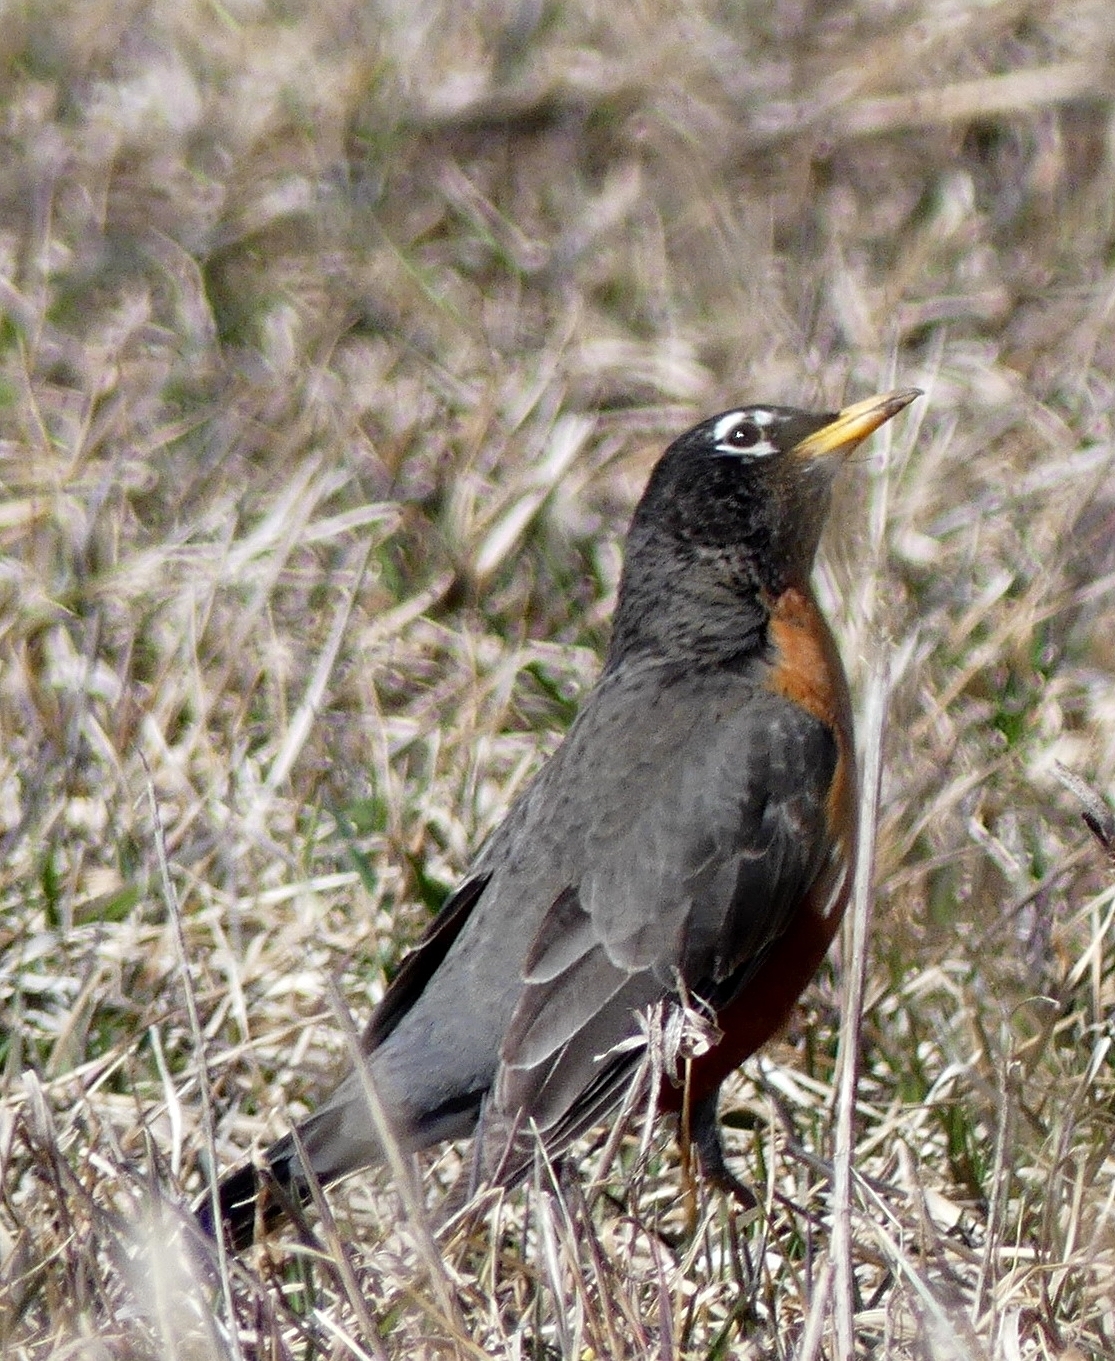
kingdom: Animalia
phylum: Chordata
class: Aves
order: Passeriformes
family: Turdidae
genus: Turdus
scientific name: Turdus migratorius
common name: American robin
